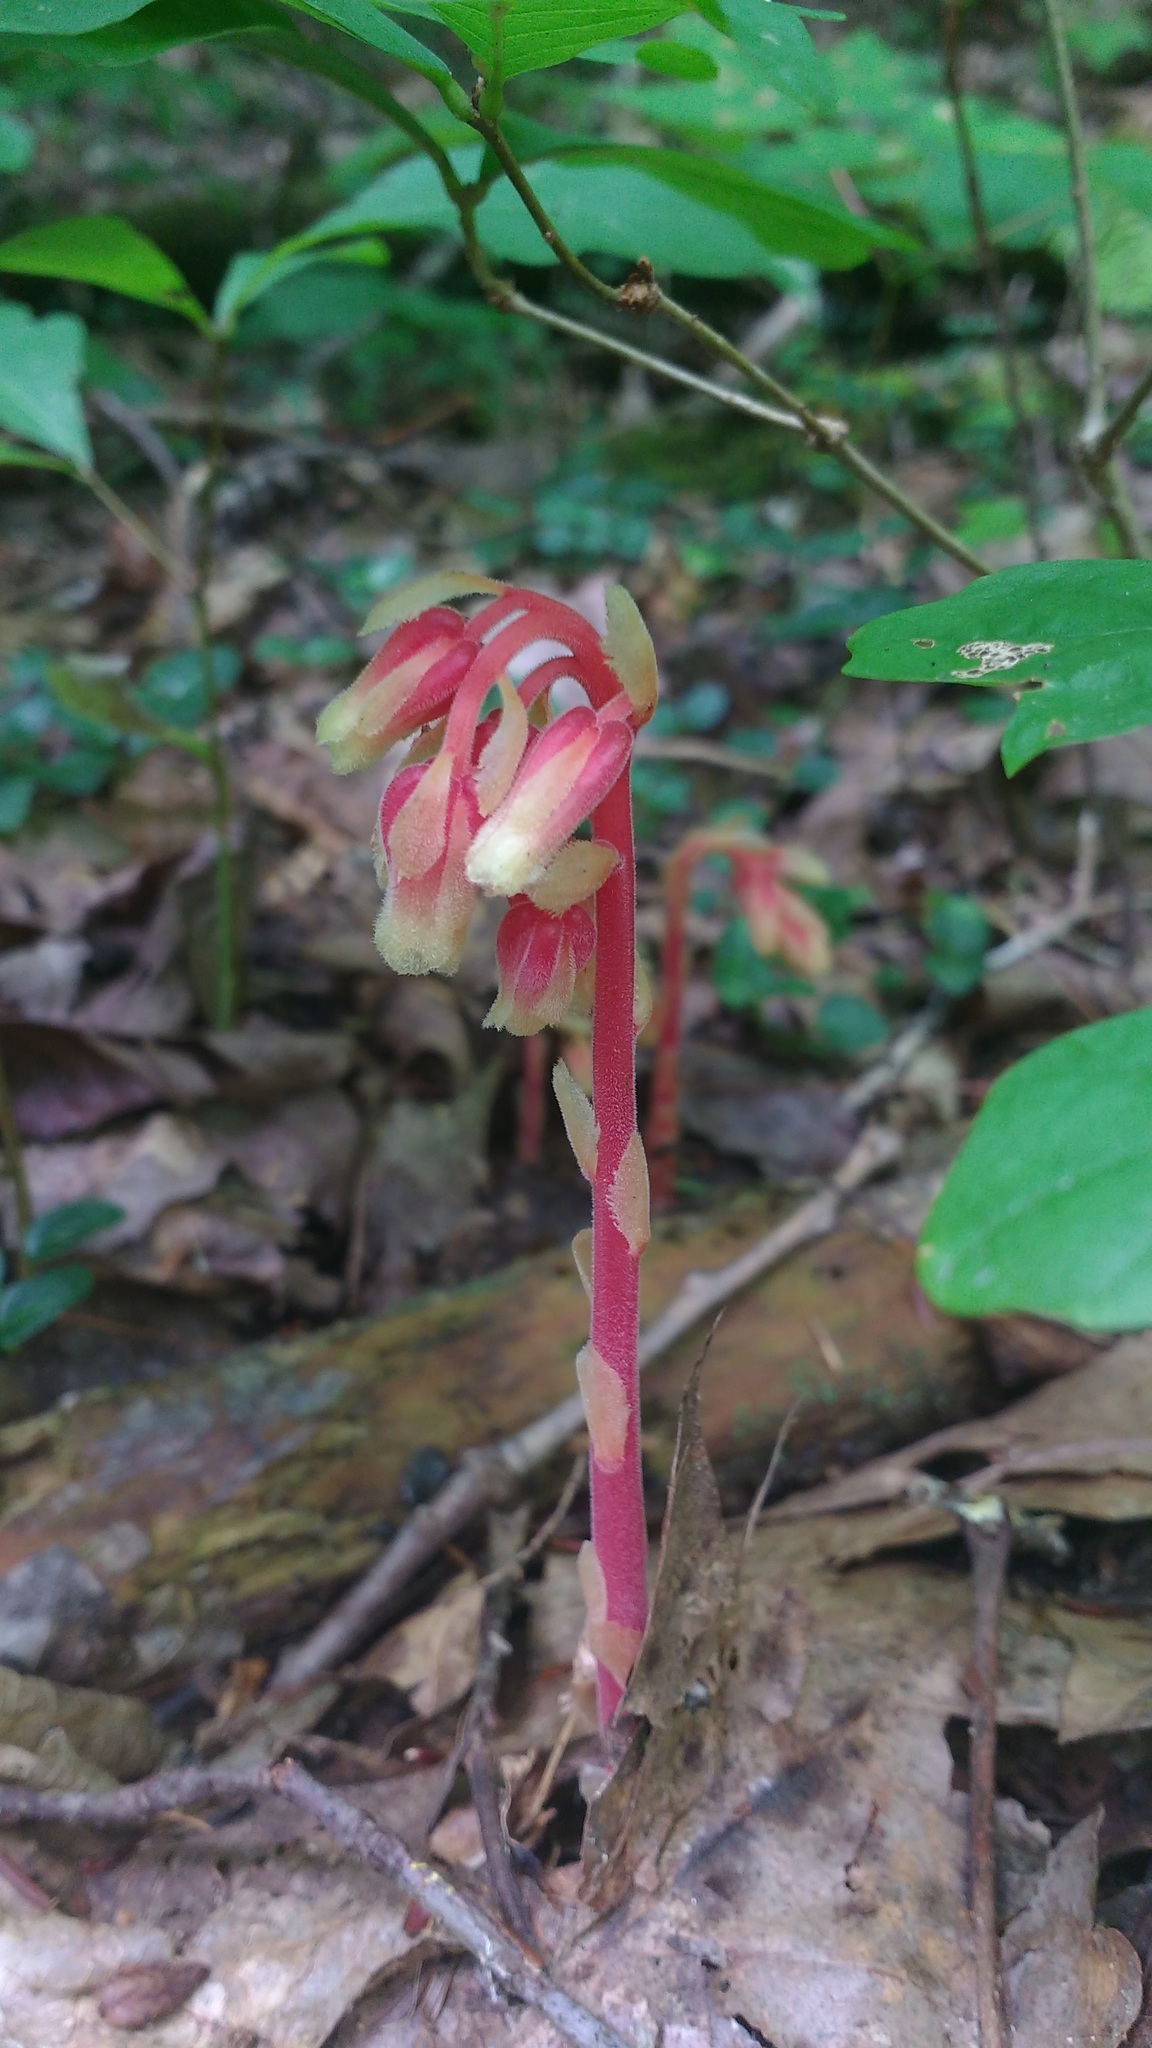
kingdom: Plantae
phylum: Tracheophyta
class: Magnoliopsida
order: Ericales
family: Ericaceae
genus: Hypopitys
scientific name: Hypopitys monotropa
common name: Yellow bird's-nest
